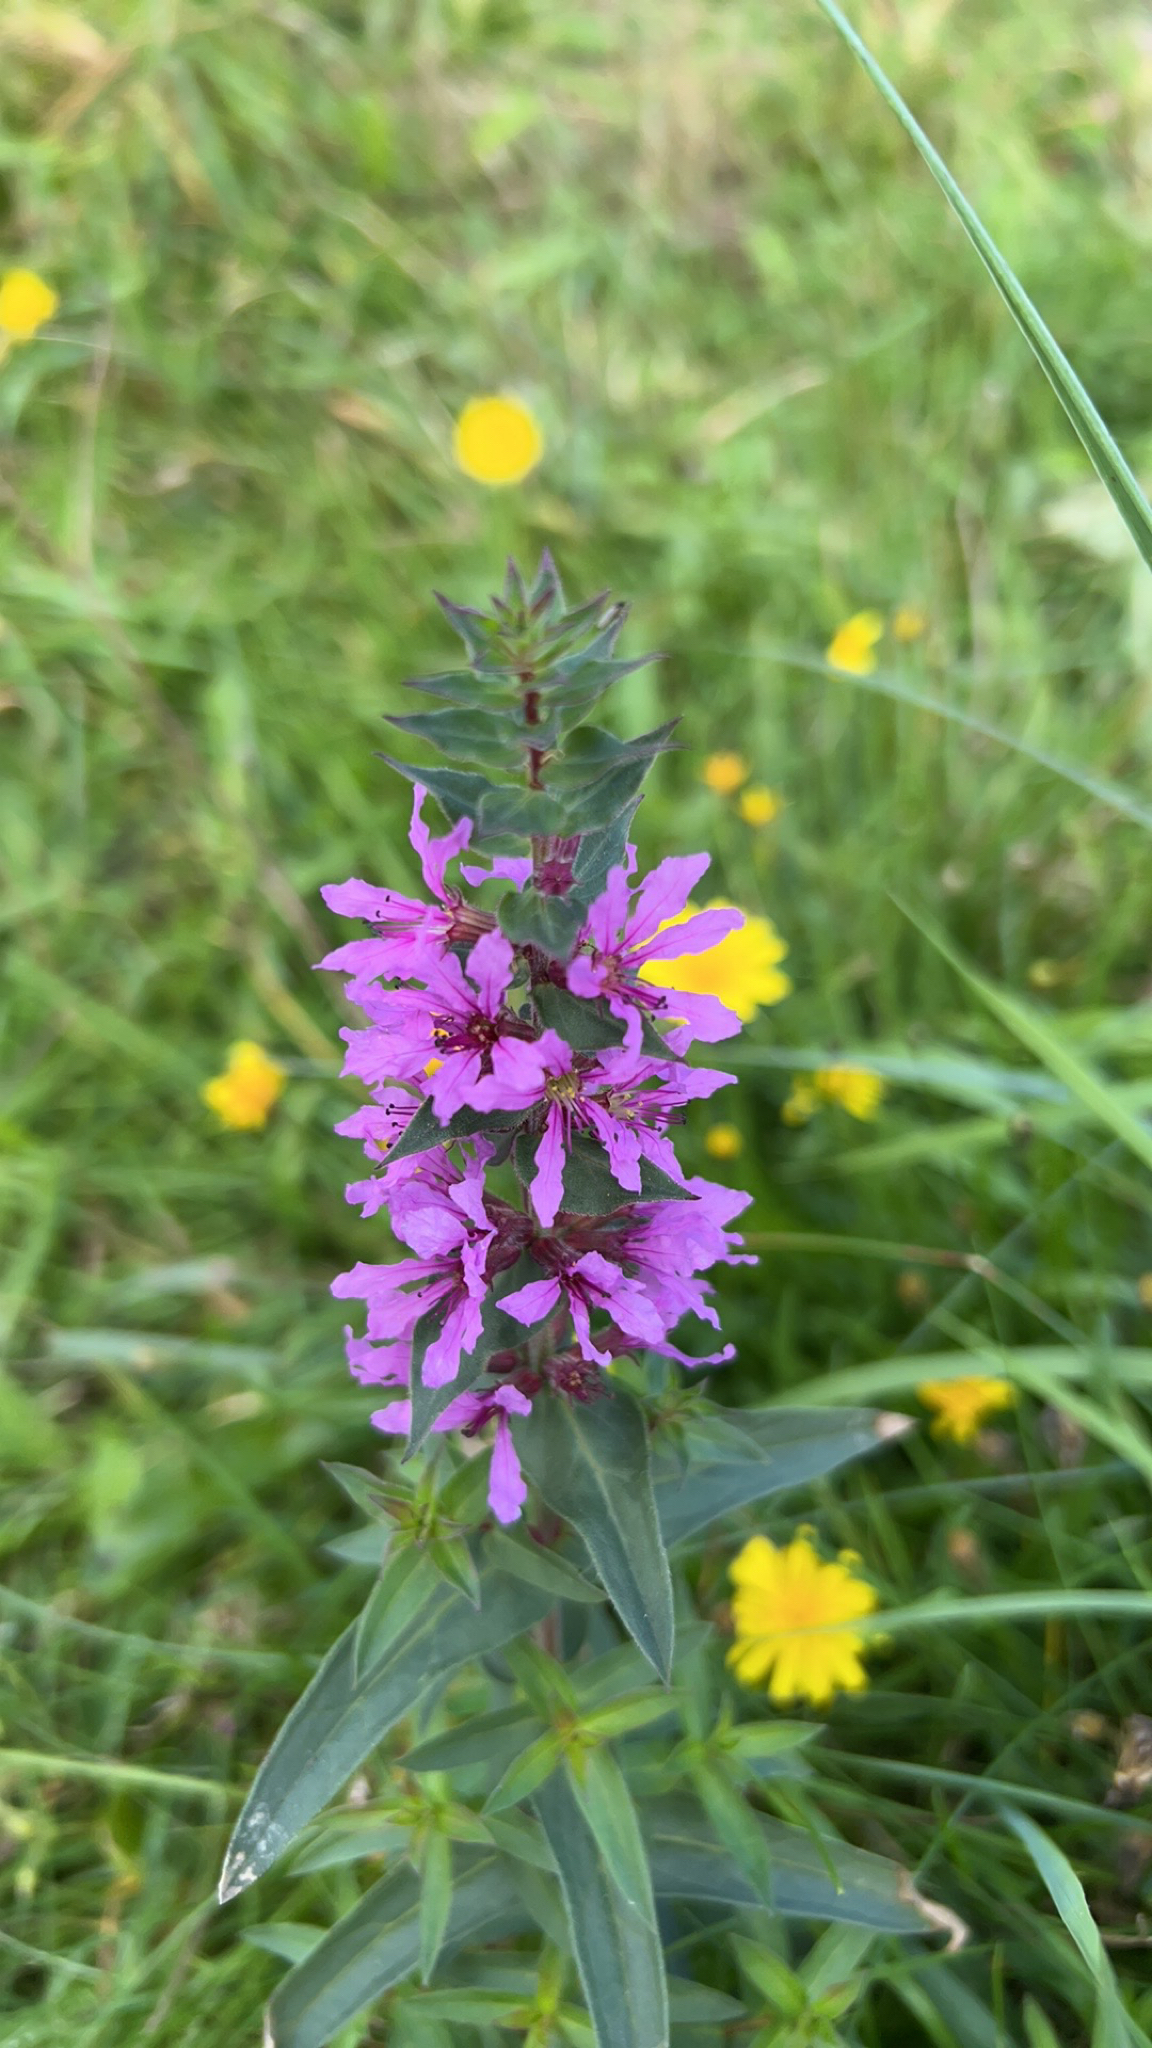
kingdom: Plantae
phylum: Tracheophyta
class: Magnoliopsida
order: Myrtales
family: Lythraceae
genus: Lythrum
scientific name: Lythrum salicaria
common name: Purple loosestrife
